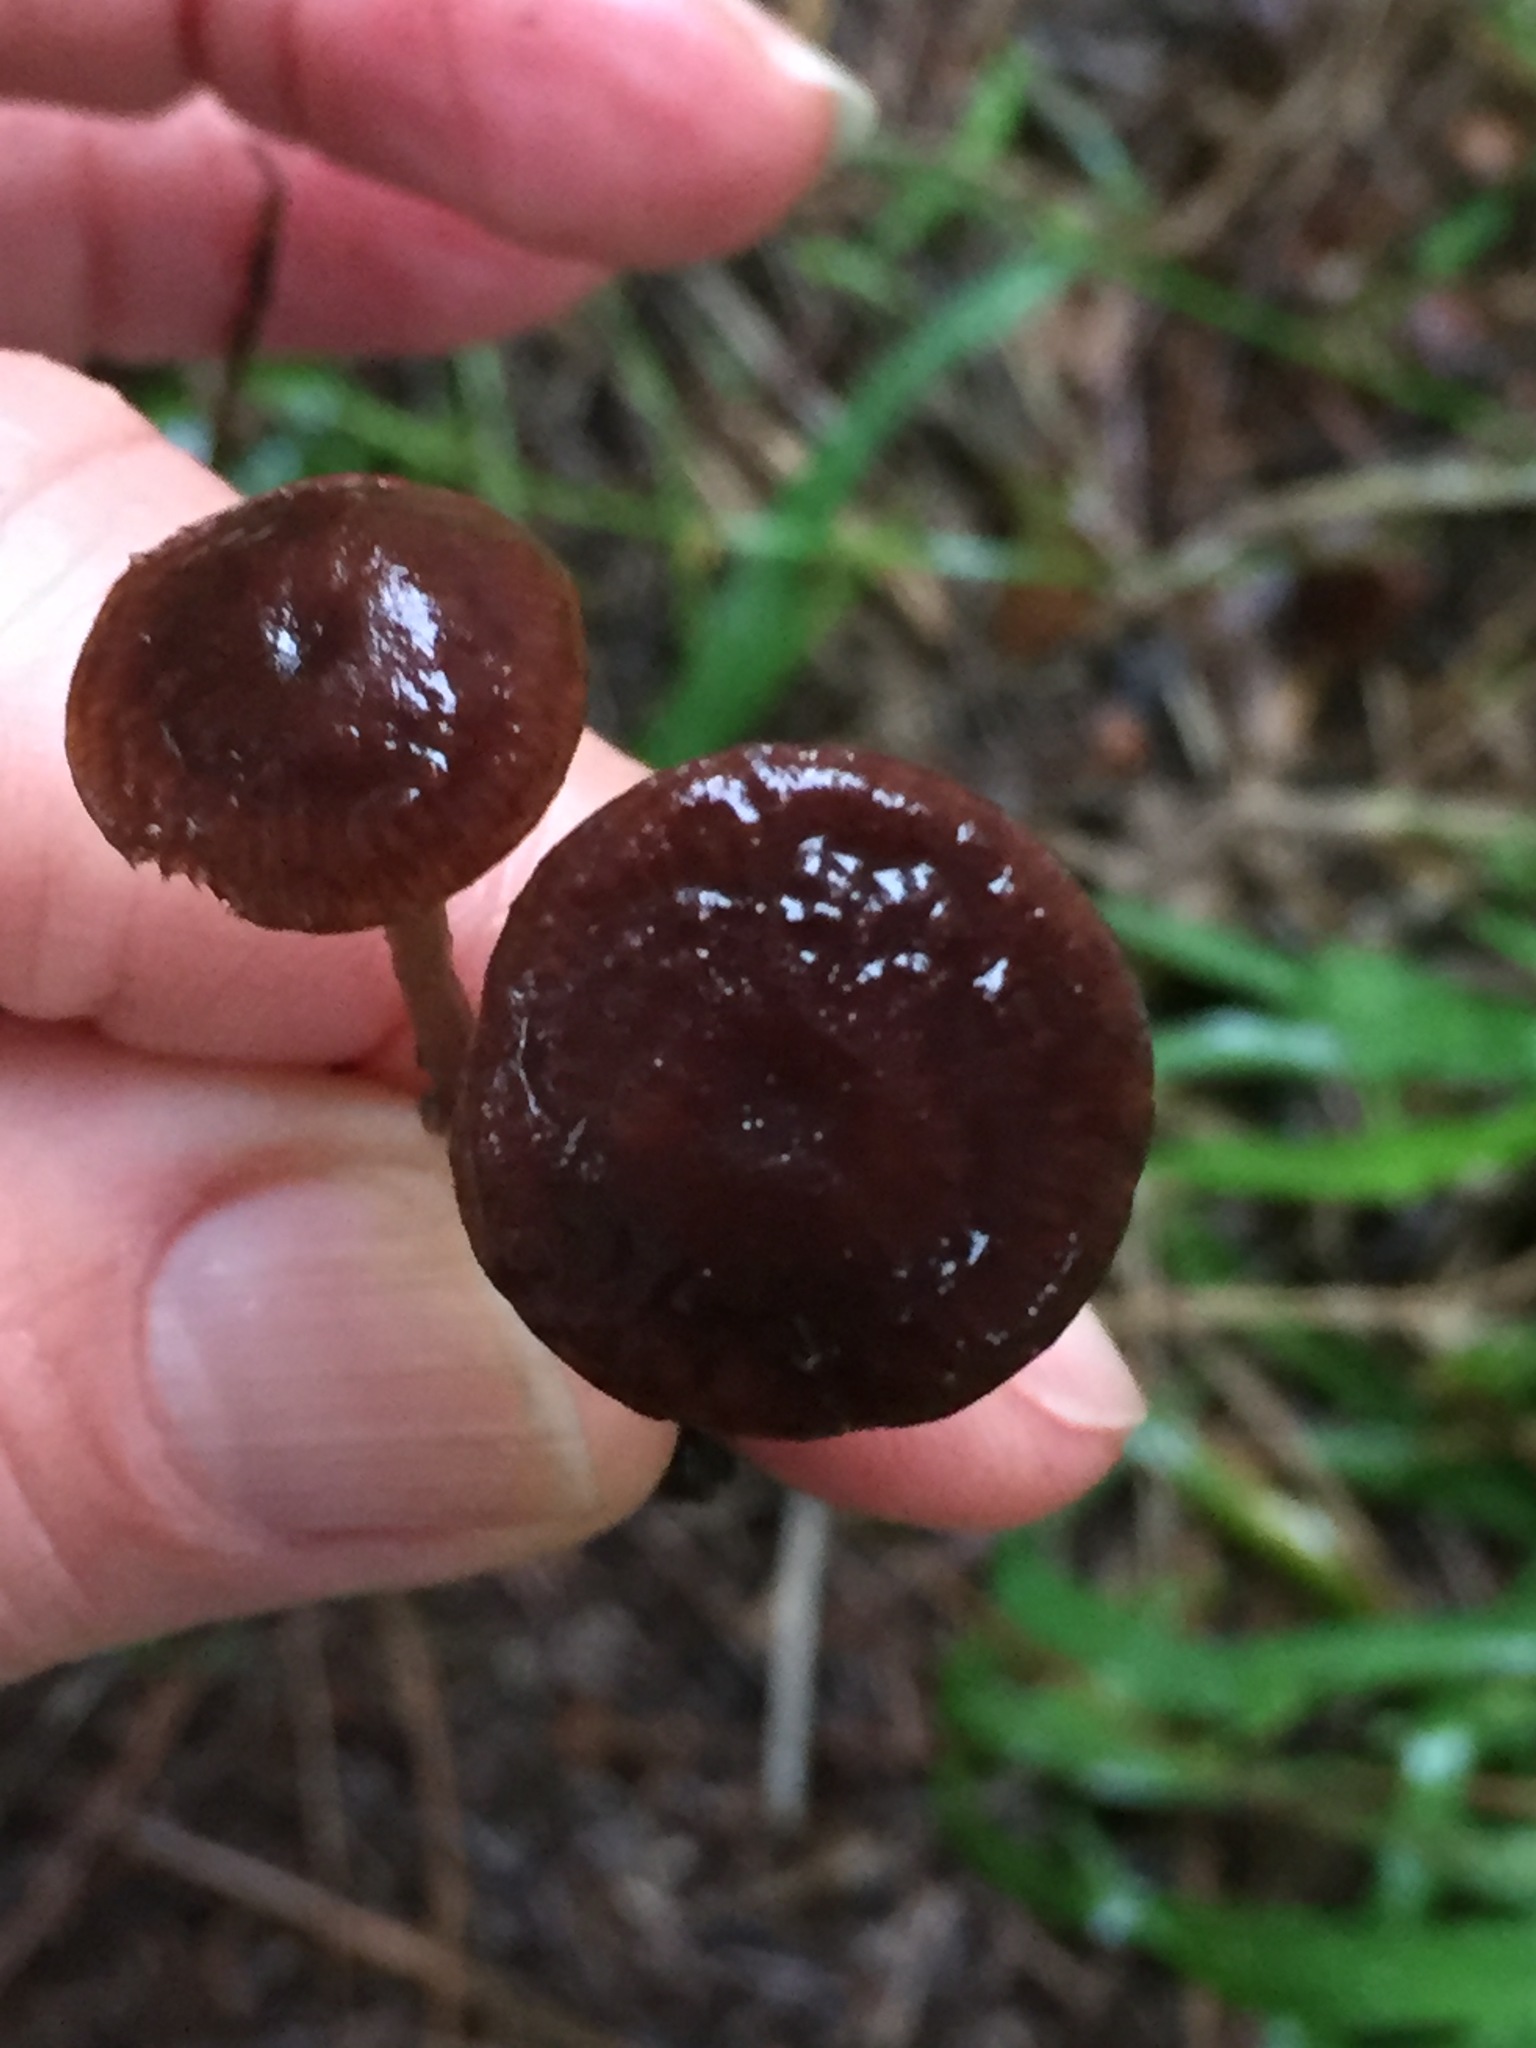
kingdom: Fungi
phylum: Basidiomycota
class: Agaricomycetes
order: Agaricales
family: Omphalotaceae
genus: Collybiopsis
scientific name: Collybiopsis villosipes
